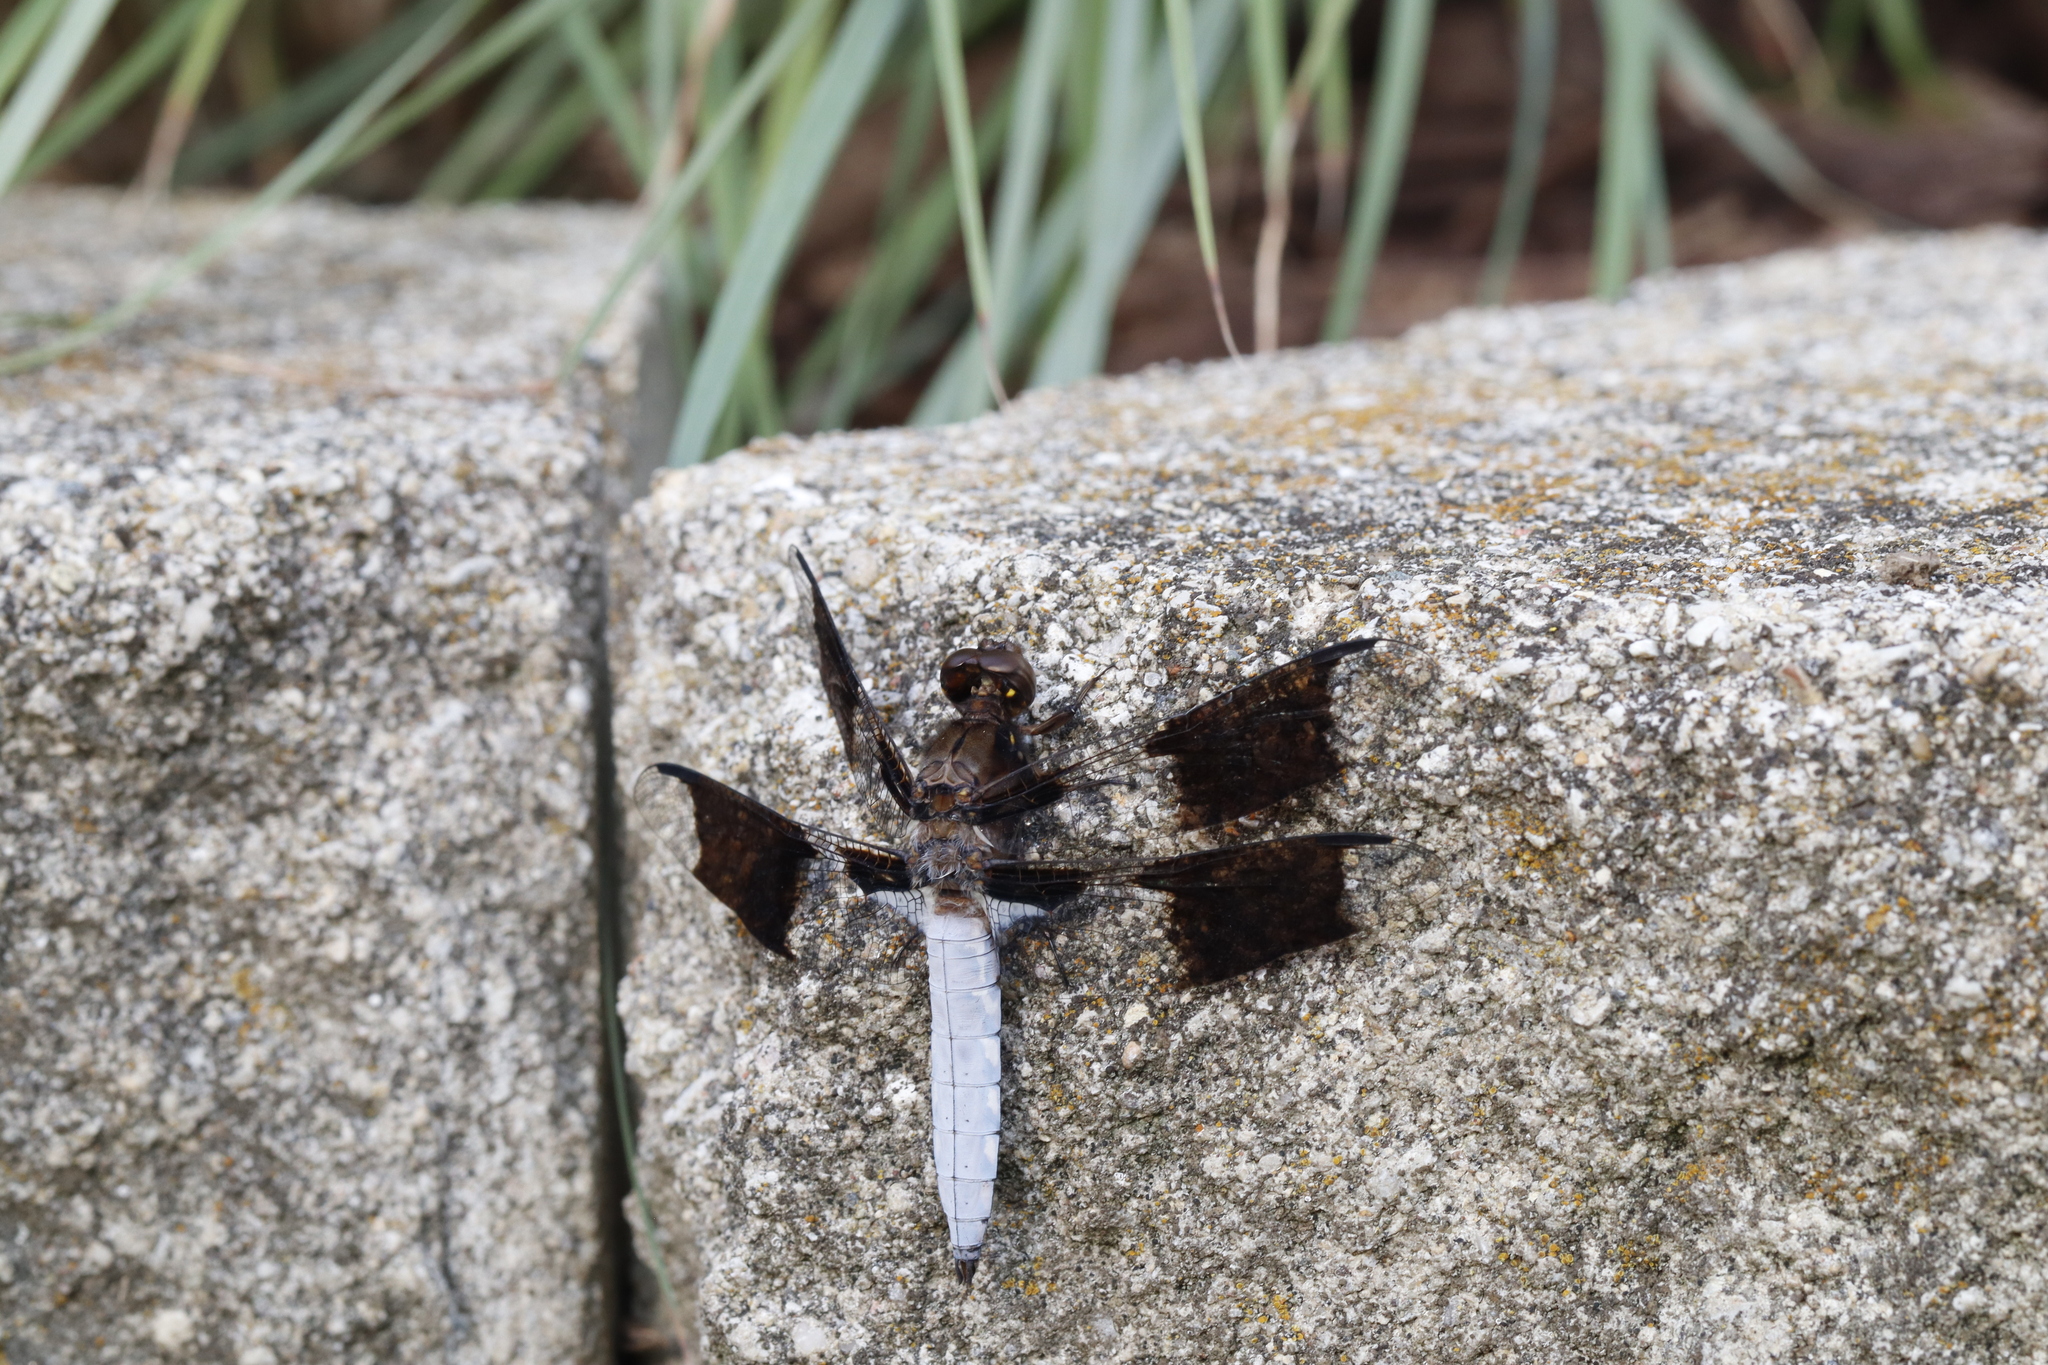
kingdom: Animalia
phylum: Arthropoda
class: Insecta
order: Odonata
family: Libellulidae
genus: Plathemis
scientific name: Plathemis lydia
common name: Common whitetail
